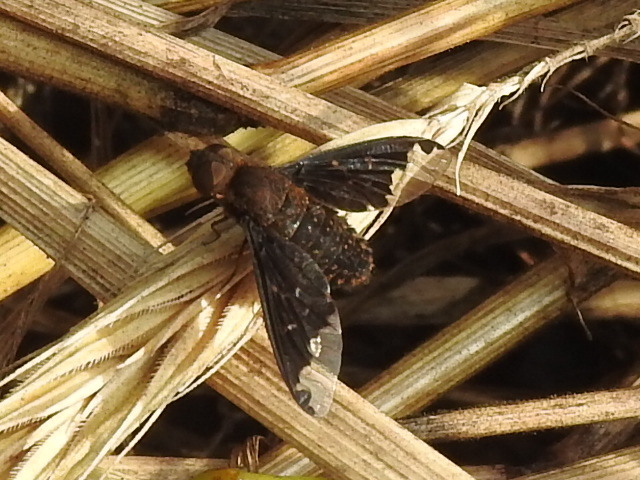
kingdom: Animalia
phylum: Arthropoda
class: Insecta
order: Diptera
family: Bombyliidae
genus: Hemipenthes
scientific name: Hemipenthes sinuosus
